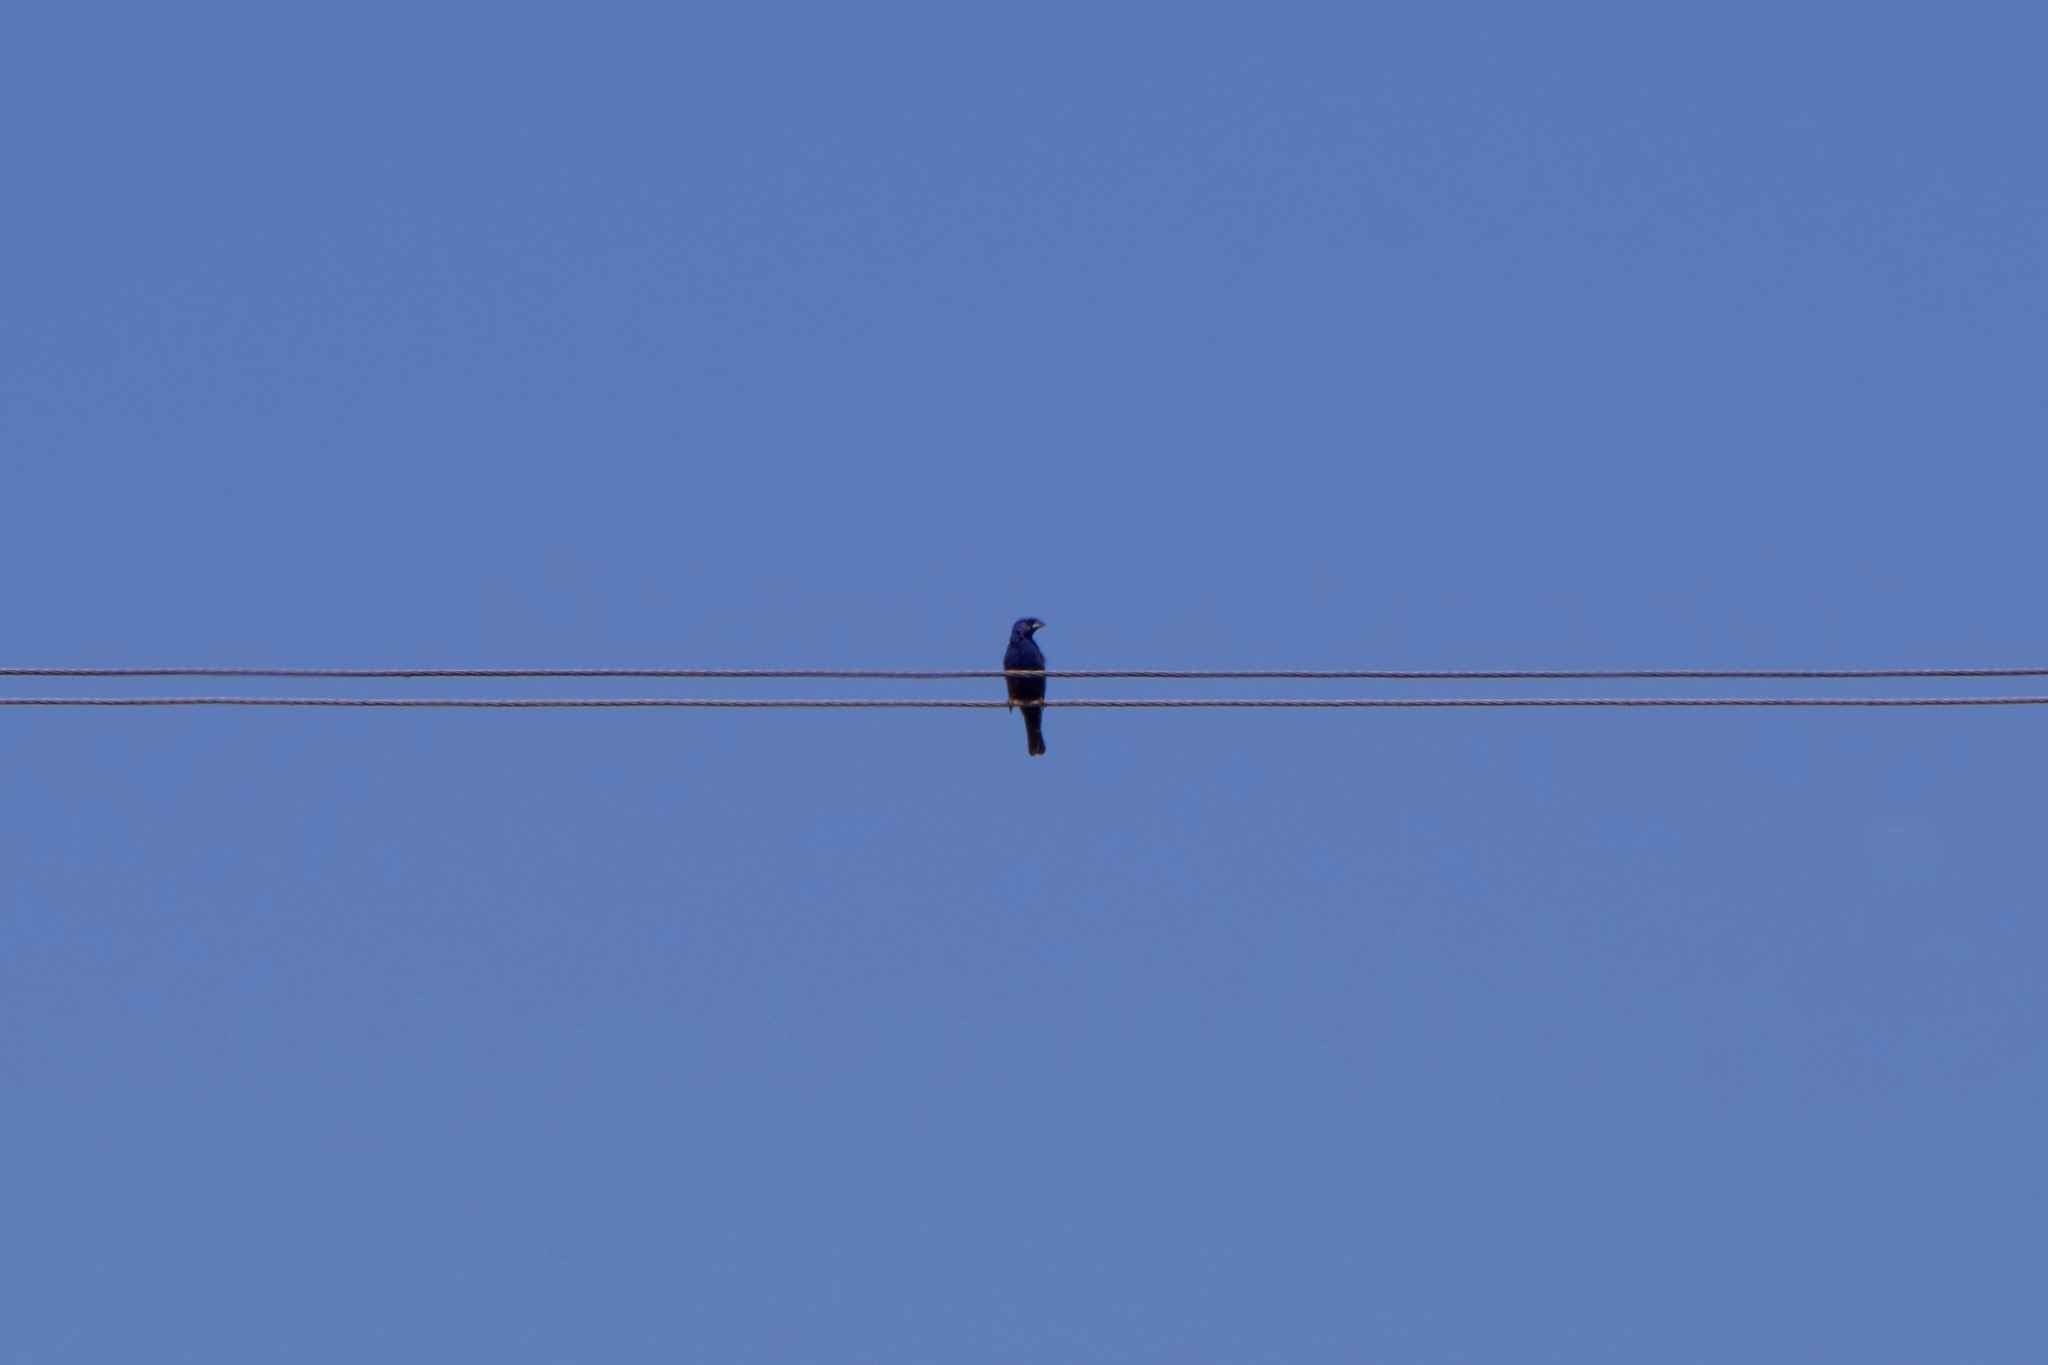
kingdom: Animalia
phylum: Chordata
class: Aves
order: Passeriformes
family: Cardinalidae
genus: Passerina
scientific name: Passerina caerulea
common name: Blue grosbeak
